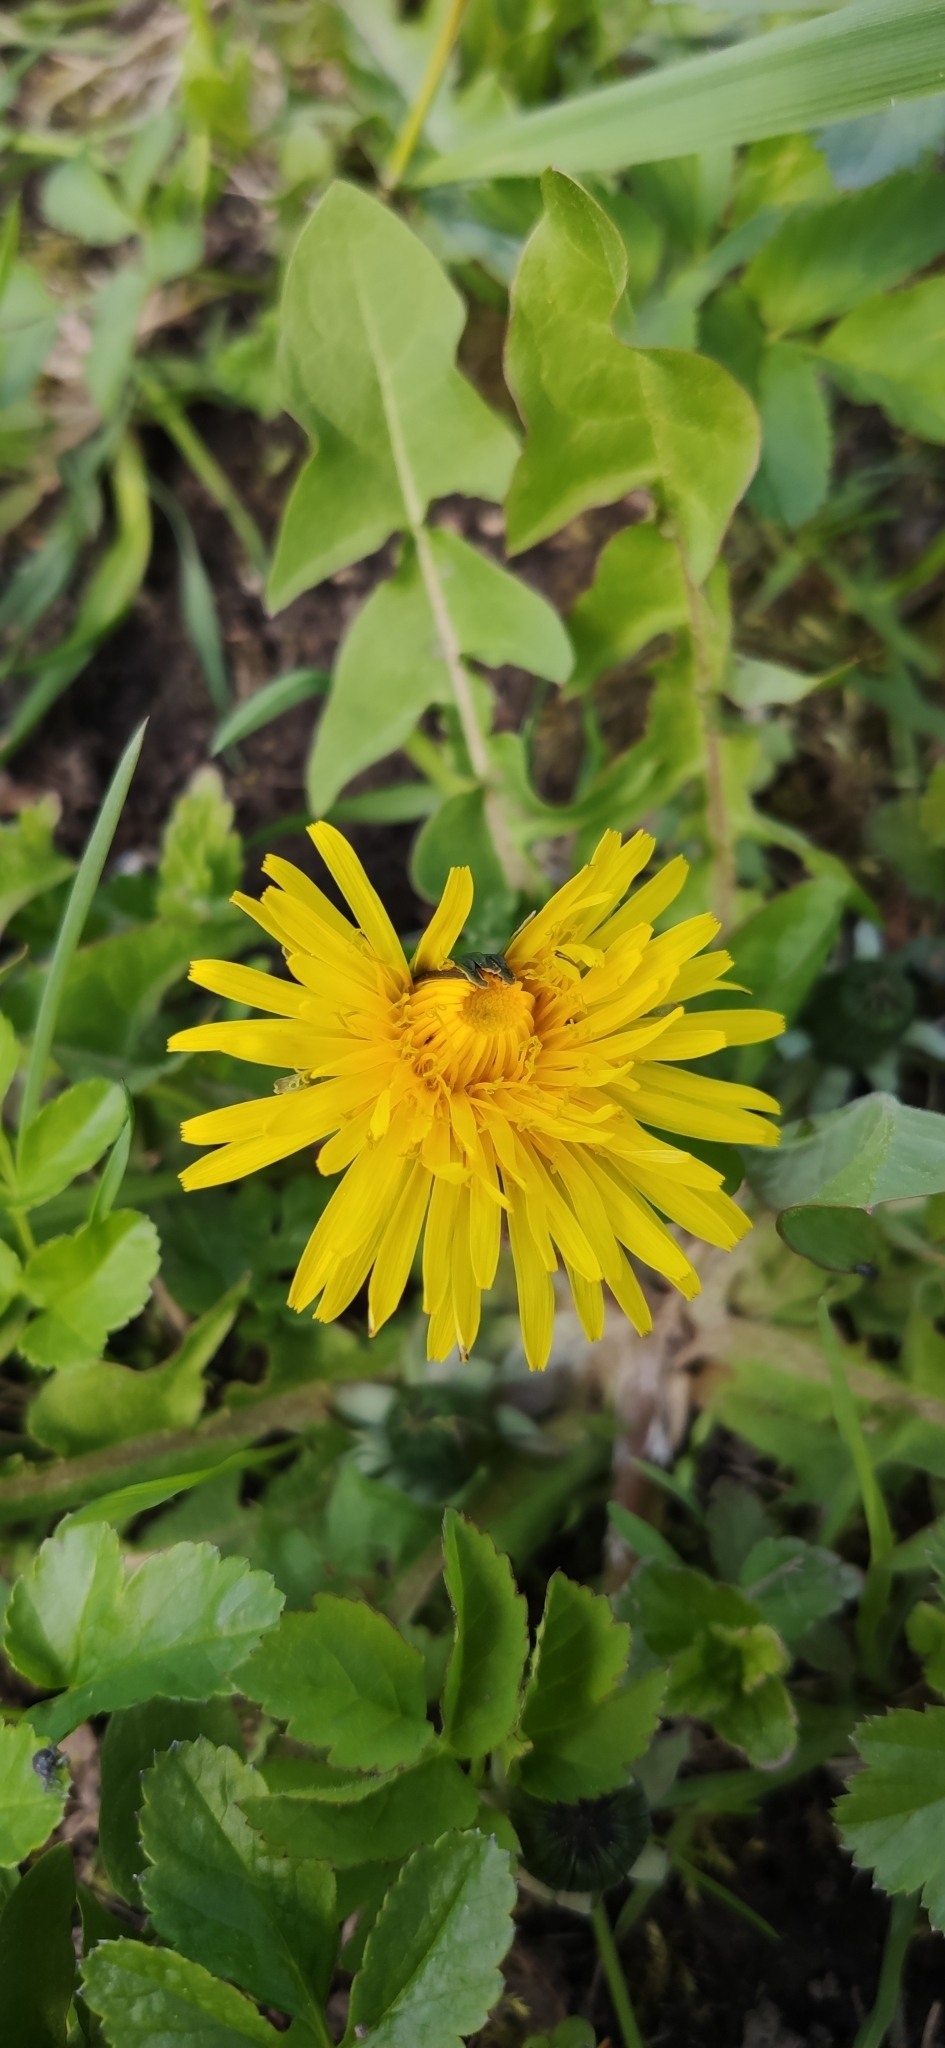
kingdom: Plantae
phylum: Tracheophyta
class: Magnoliopsida
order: Asterales
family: Asteraceae
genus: Taraxacum
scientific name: Taraxacum officinale
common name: Common dandelion
